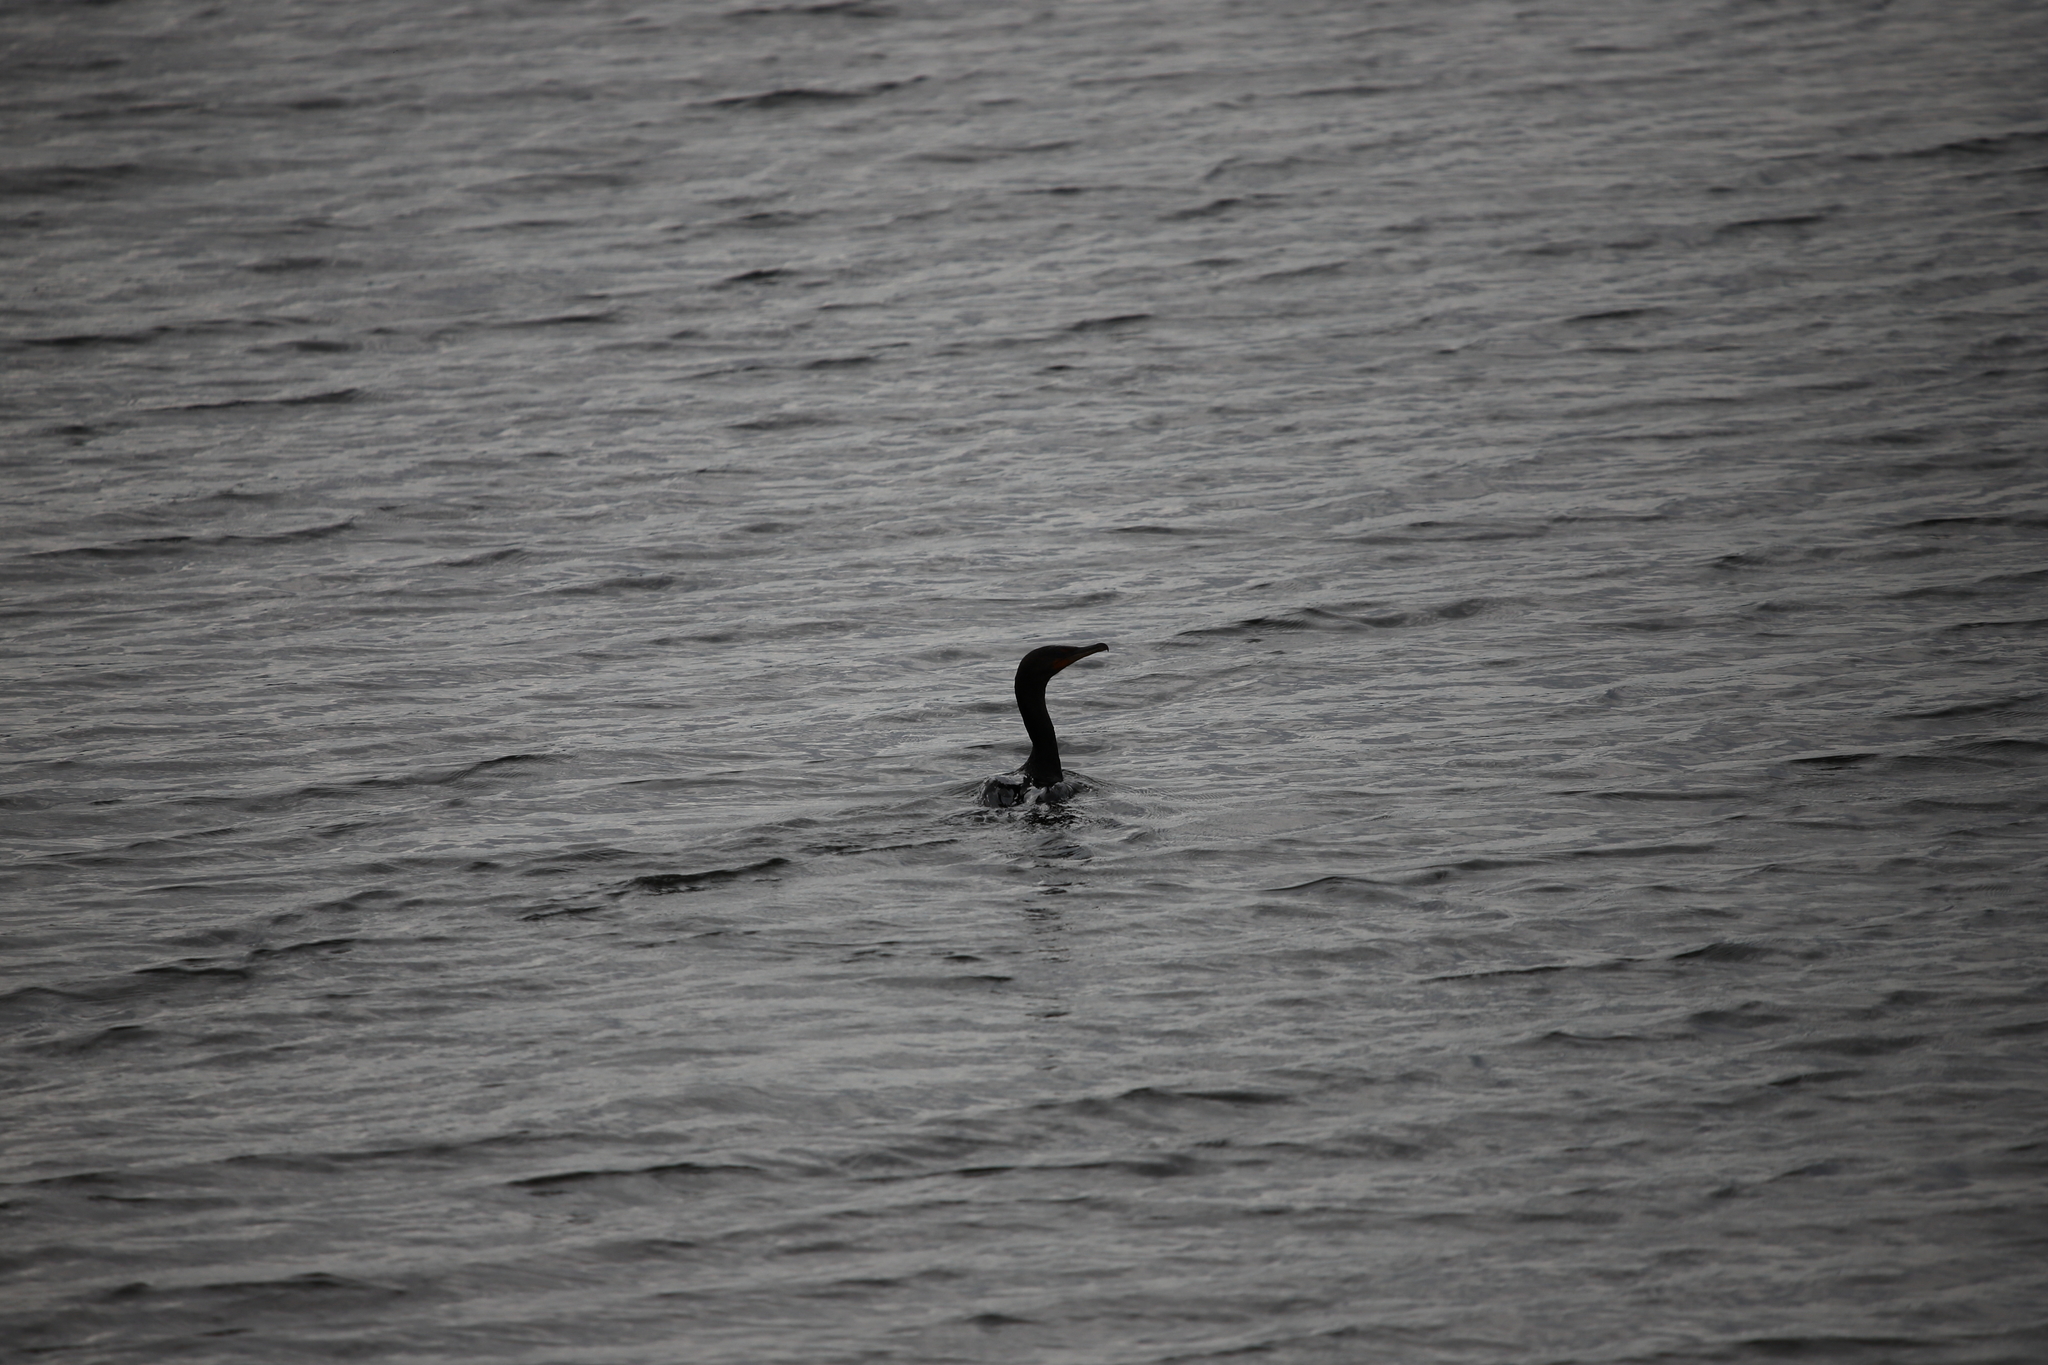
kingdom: Animalia
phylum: Chordata
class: Aves
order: Suliformes
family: Phalacrocoracidae
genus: Phalacrocorax
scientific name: Phalacrocorax auritus
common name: Double-crested cormorant
